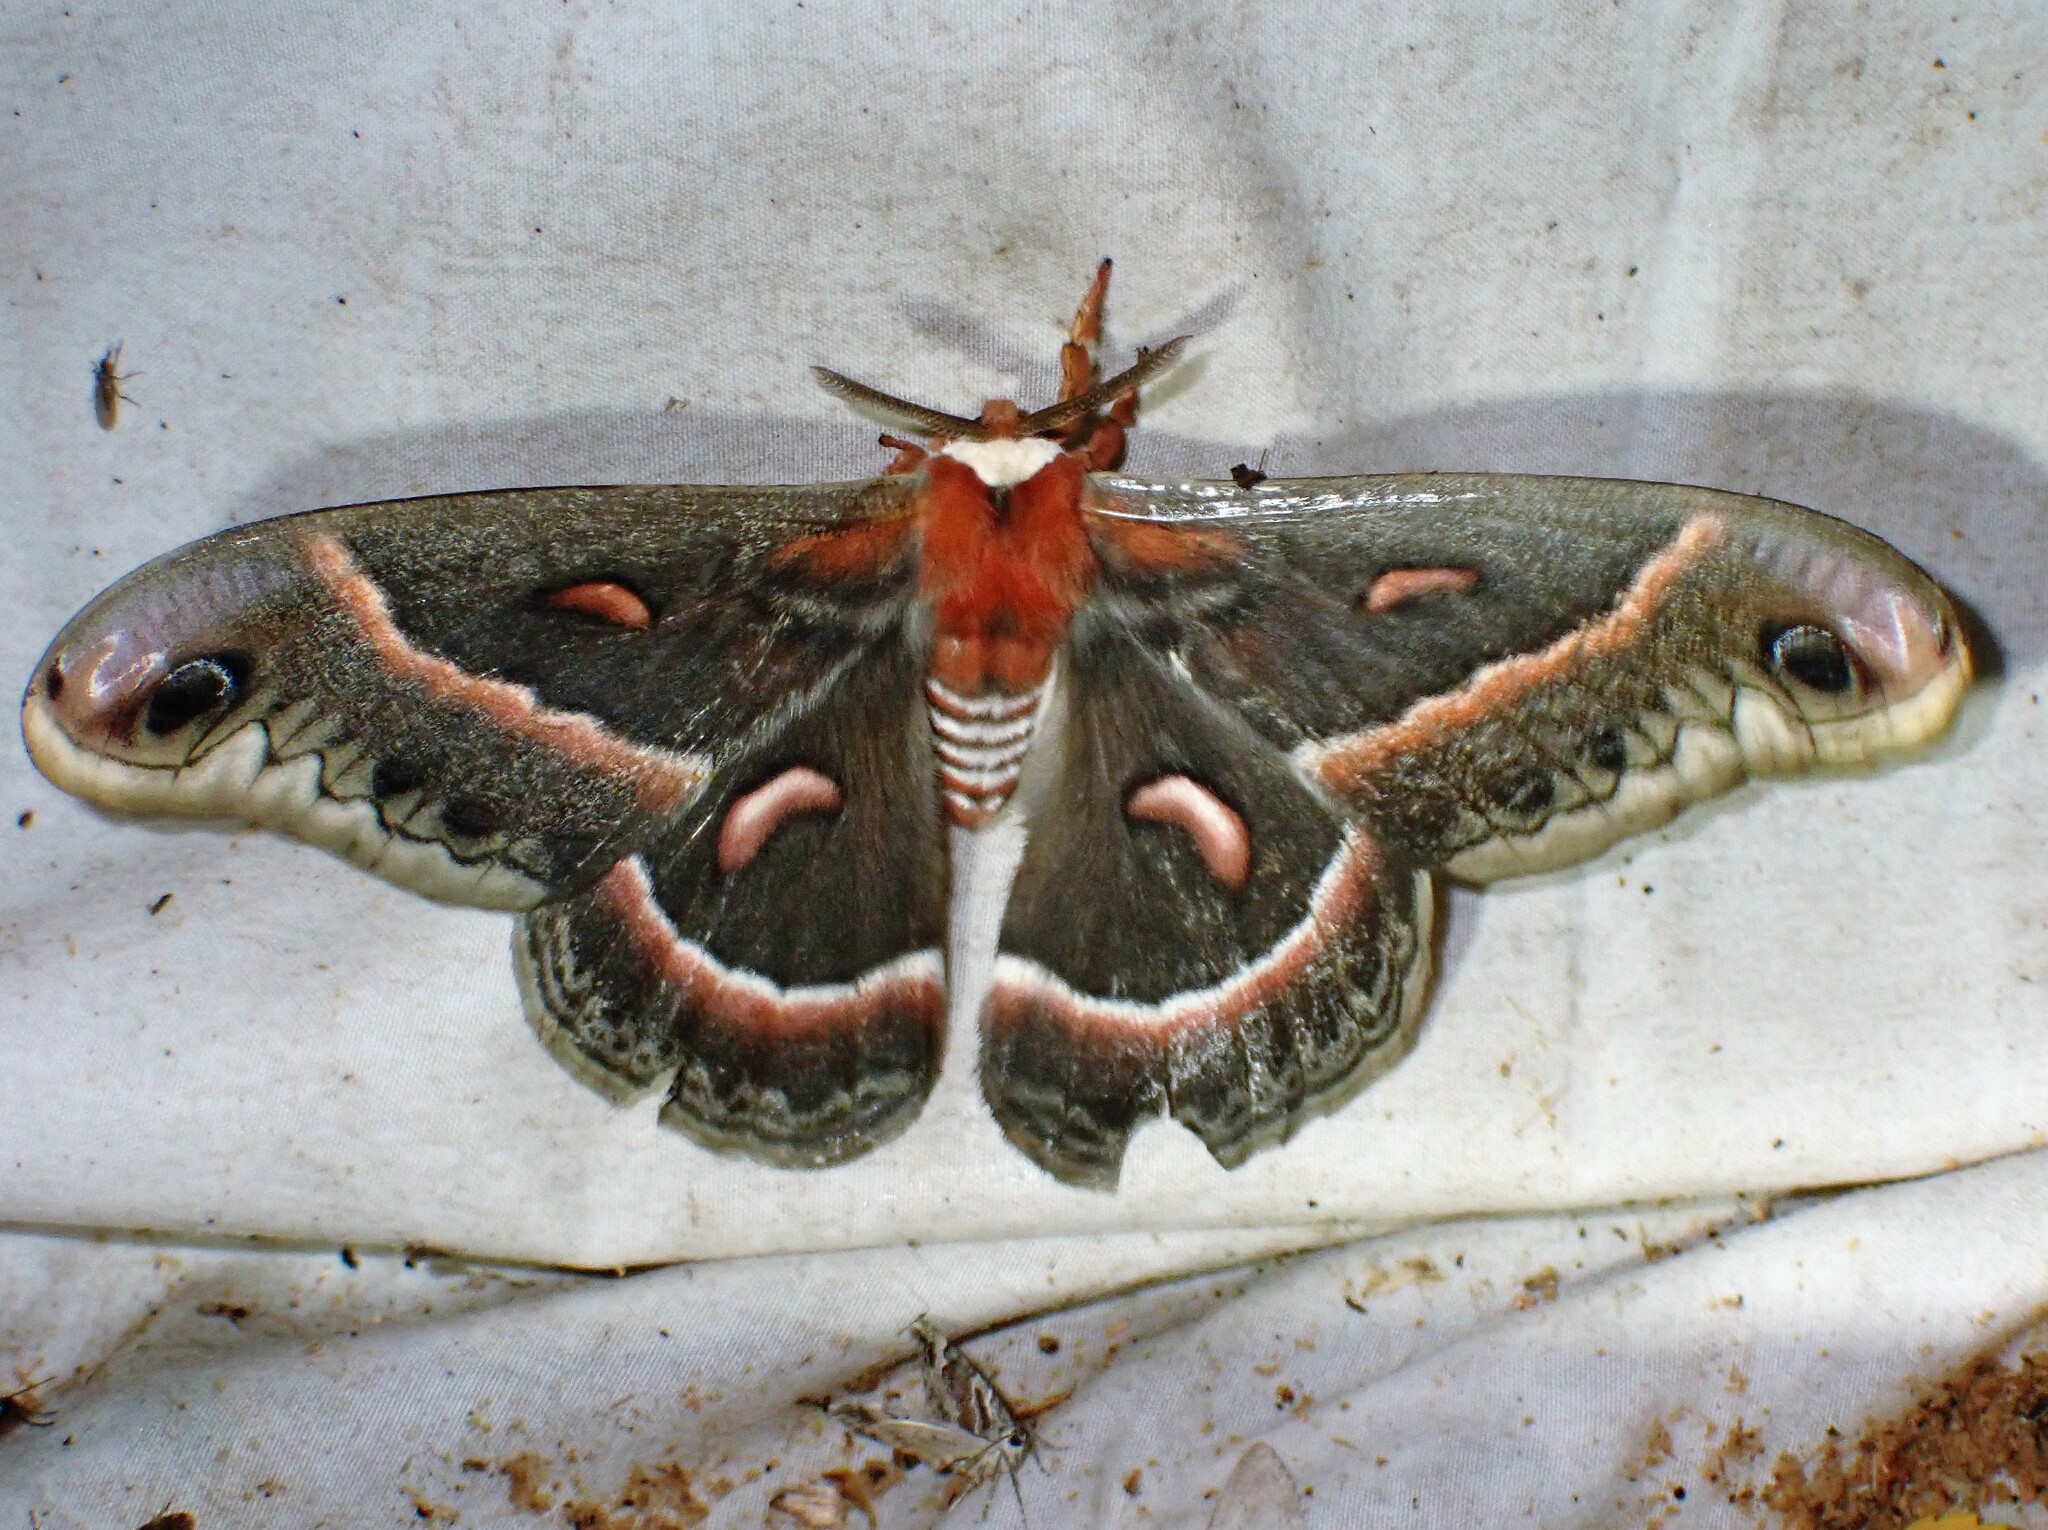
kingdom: Animalia
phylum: Arthropoda
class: Insecta
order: Lepidoptera
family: Saturniidae
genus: Hyalophora
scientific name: Hyalophora cecropia
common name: Cecropia silkmoth
